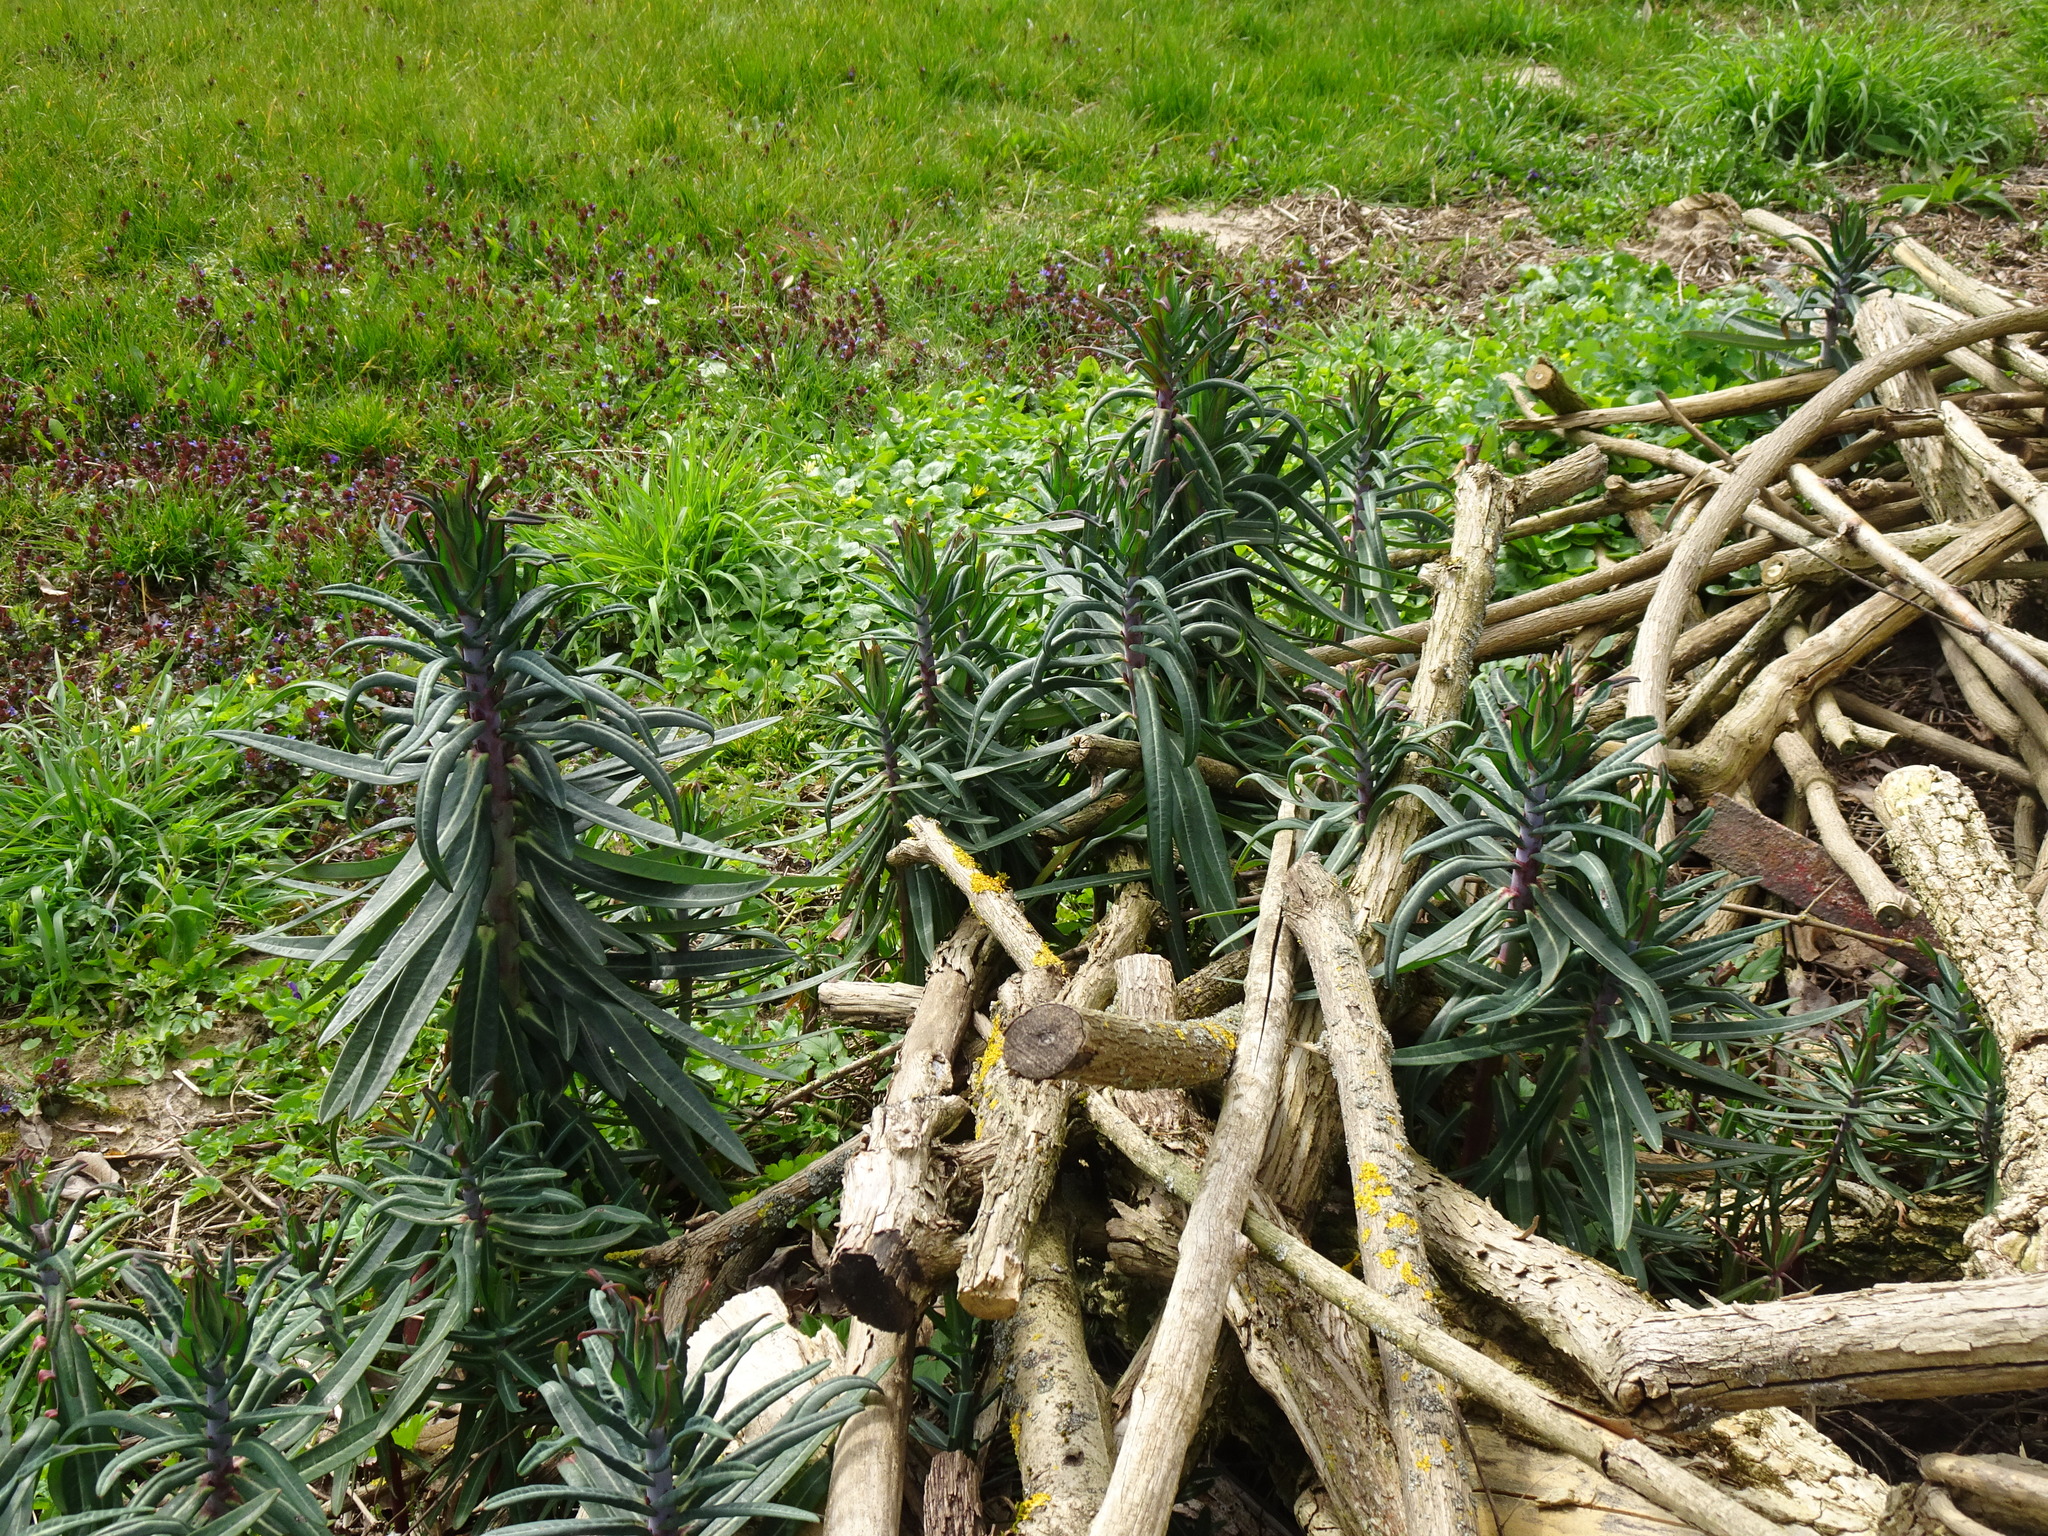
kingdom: Plantae
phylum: Tracheophyta
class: Magnoliopsida
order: Malpighiales
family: Euphorbiaceae
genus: Euphorbia
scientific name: Euphorbia lathyris
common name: Caper spurge
